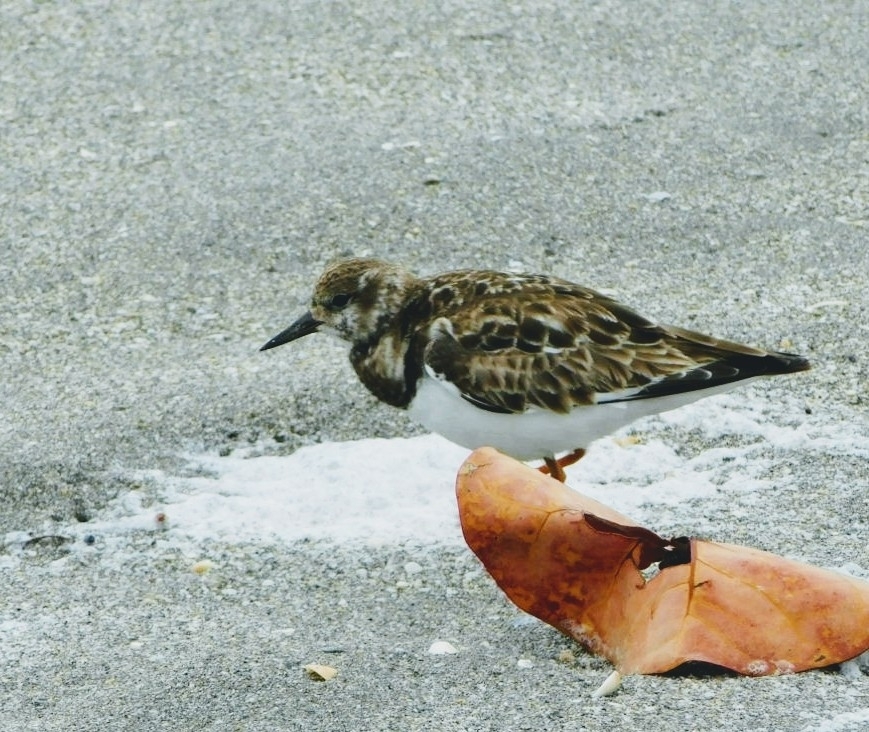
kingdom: Animalia
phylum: Chordata
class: Aves
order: Charadriiformes
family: Scolopacidae
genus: Arenaria
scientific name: Arenaria interpres
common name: Ruddy turnstone
